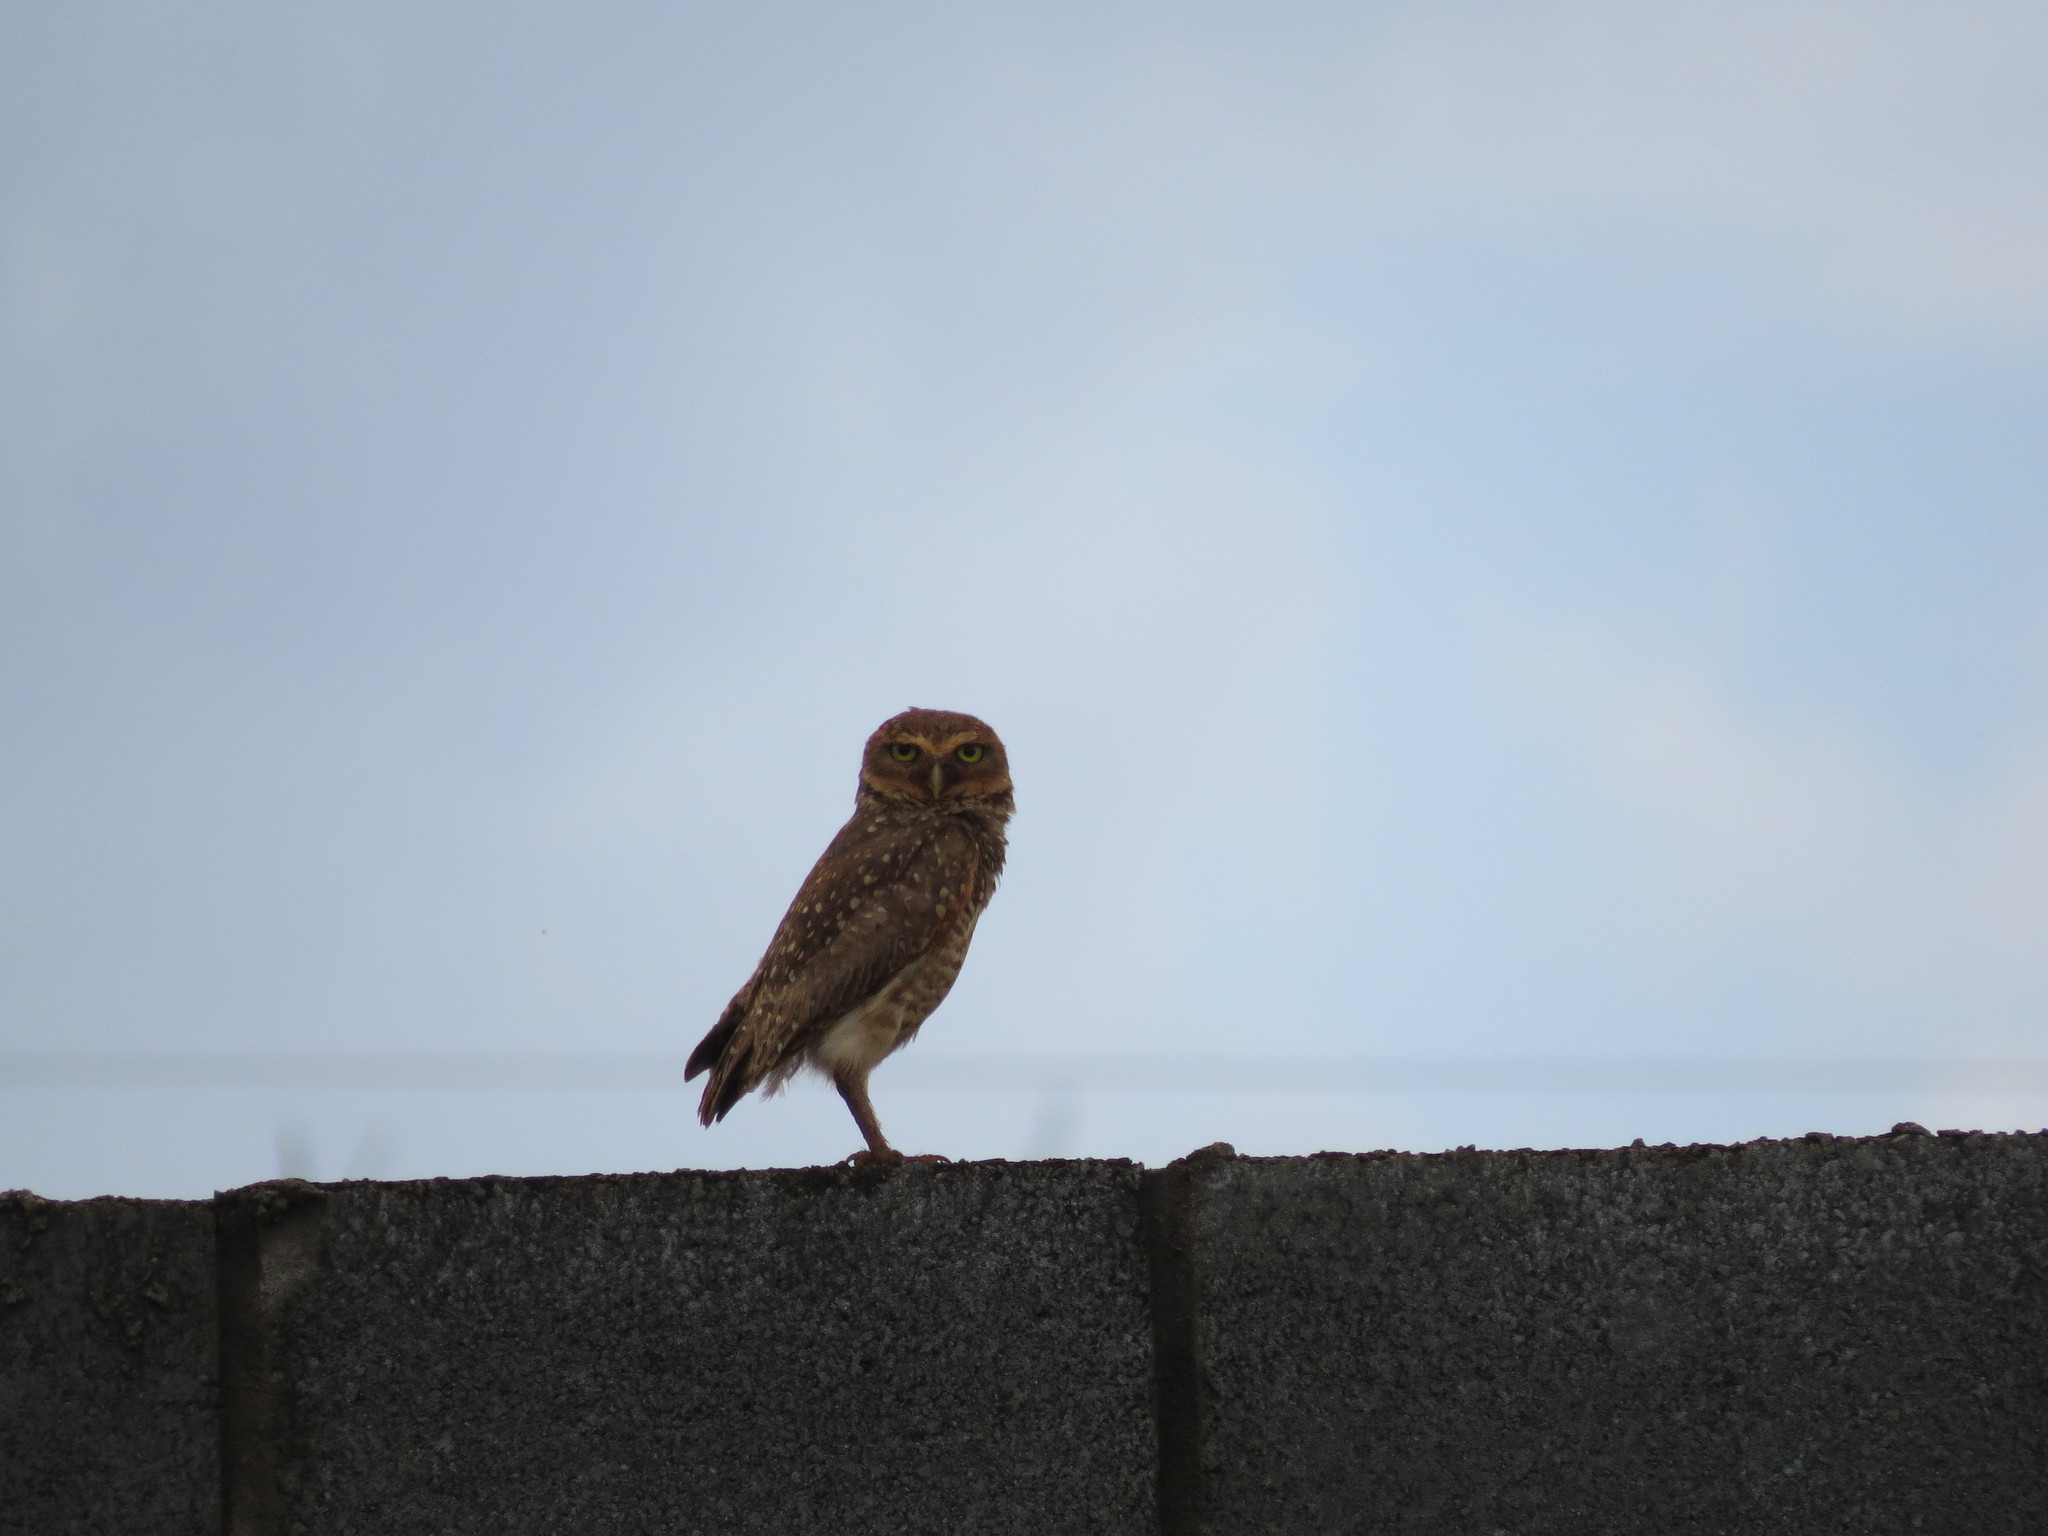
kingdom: Animalia
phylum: Chordata
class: Aves
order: Strigiformes
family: Strigidae
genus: Athene
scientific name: Athene cunicularia
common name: Burrowing owl
